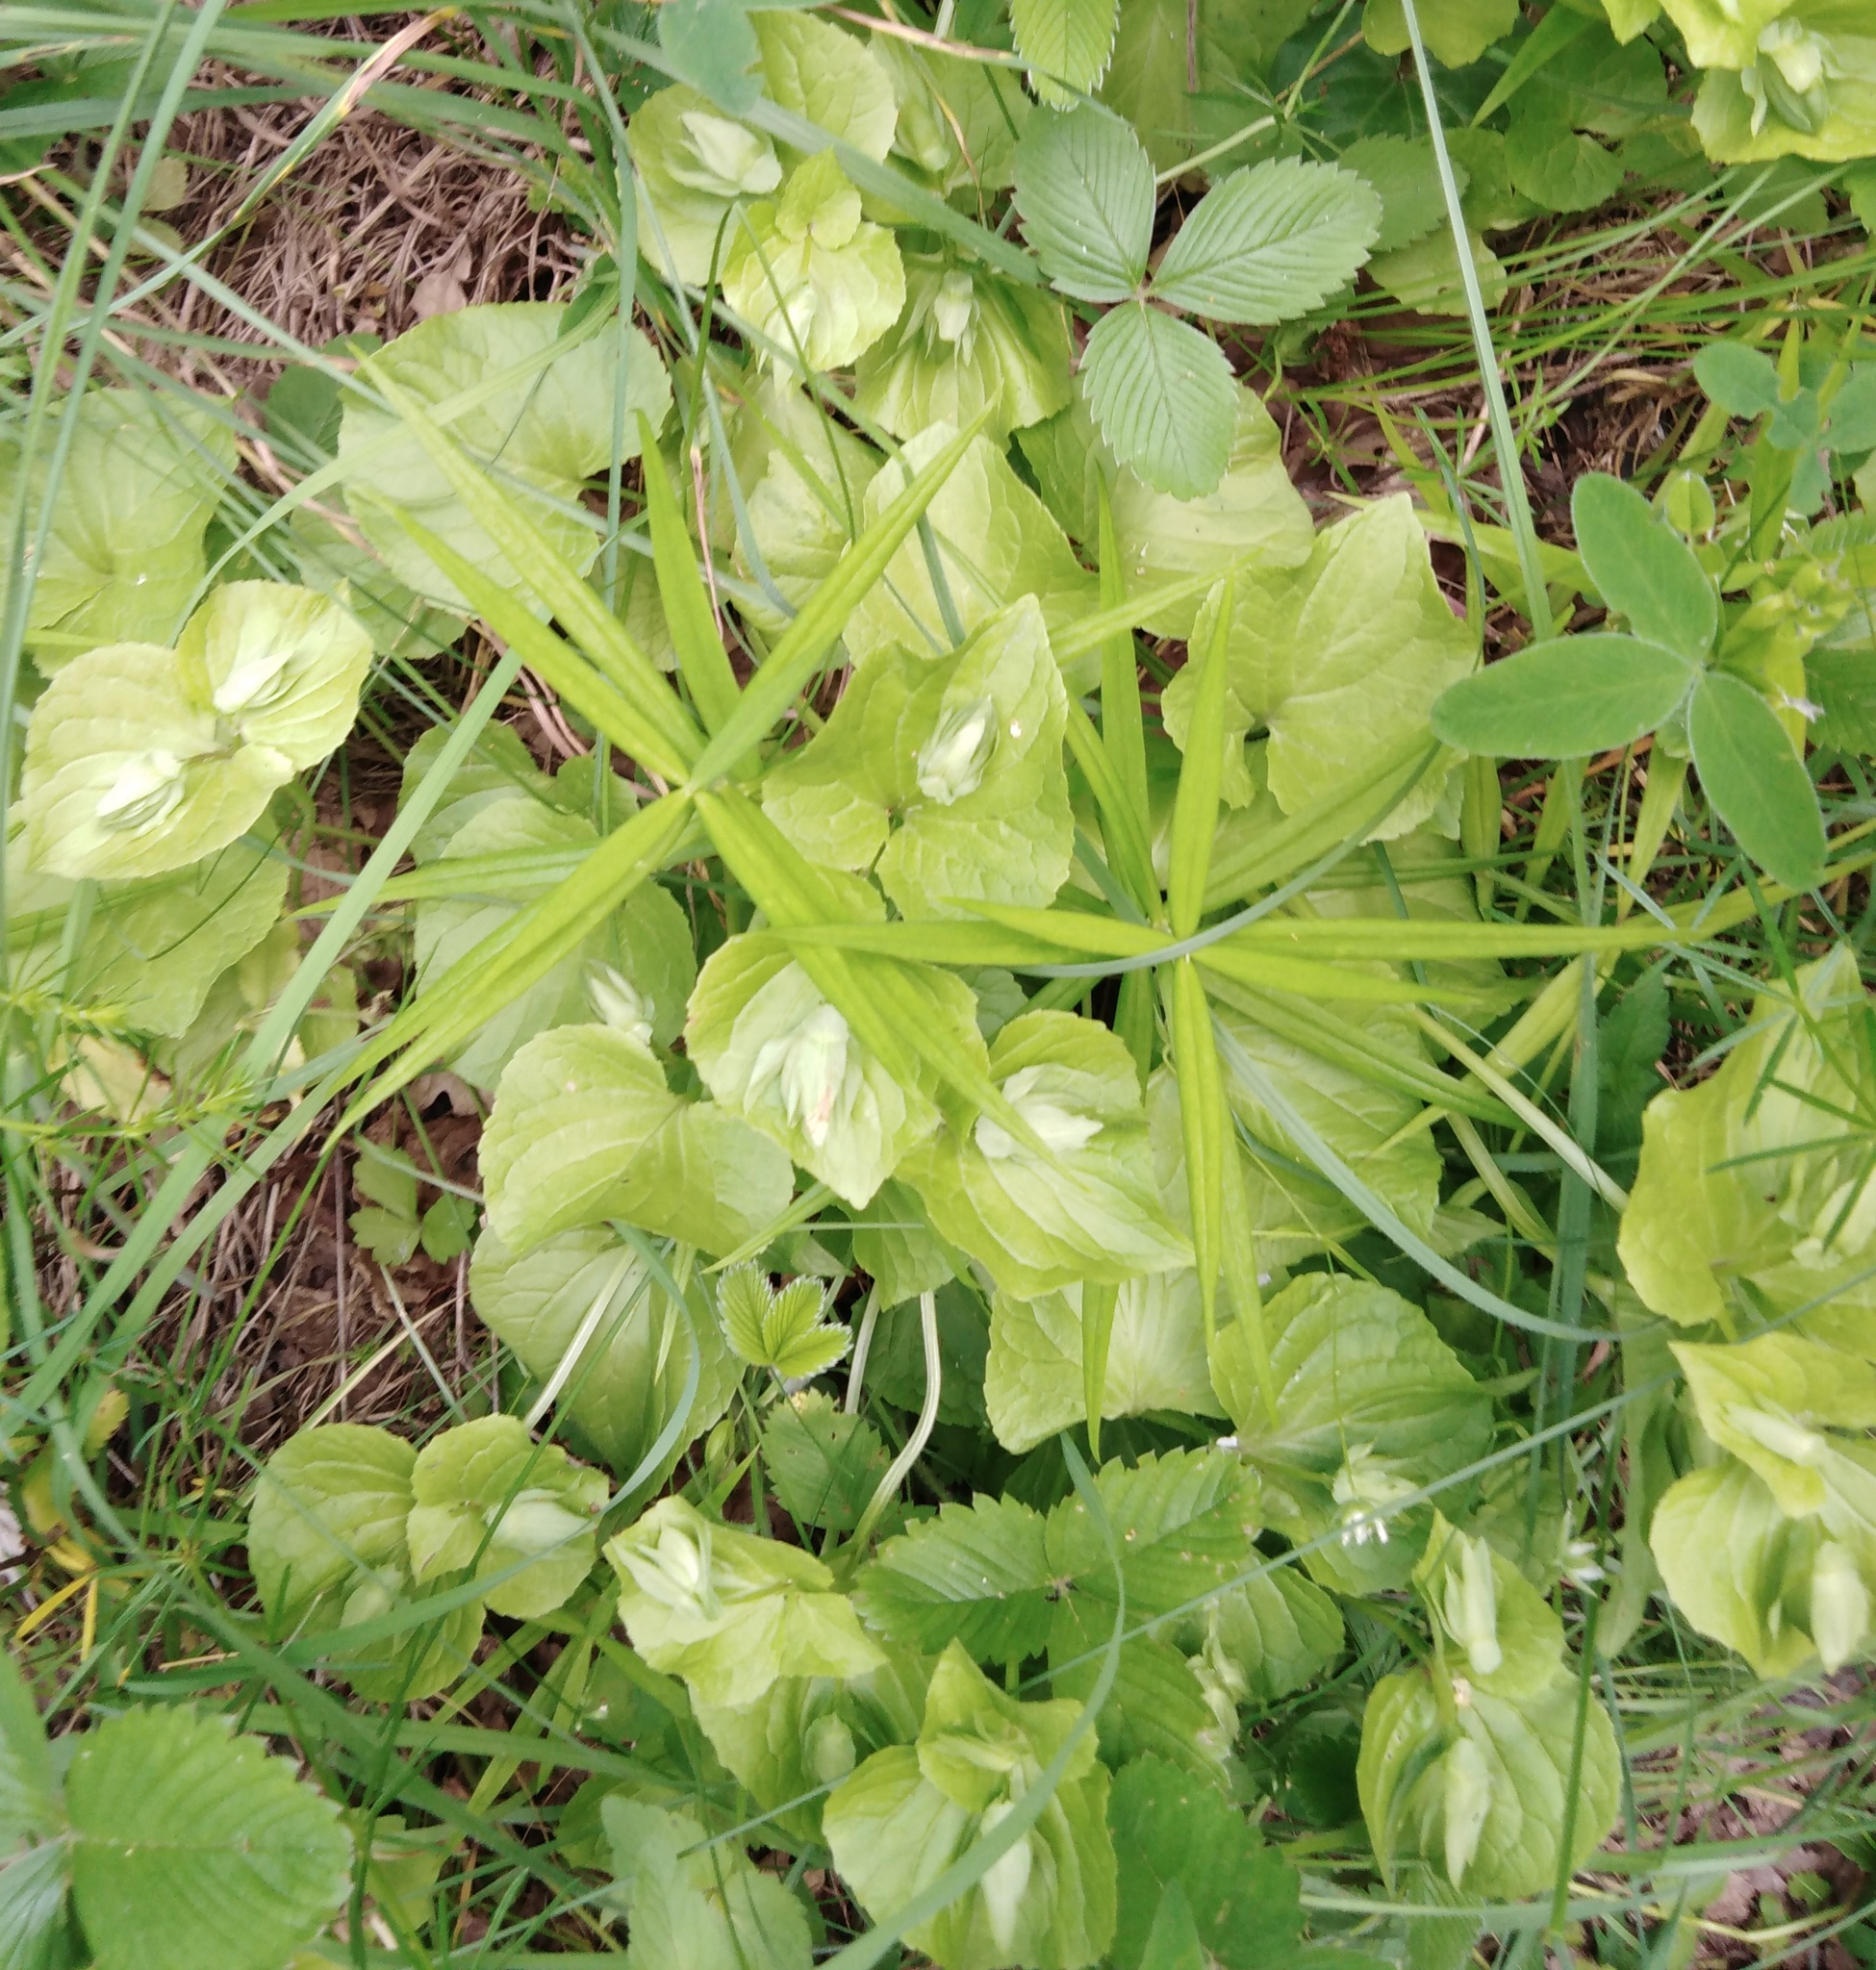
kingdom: Plantae
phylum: Tracheophyta
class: Magnoliopsida
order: Malpighiales
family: Violaceae
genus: Viola
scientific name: Viola mirabilis
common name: Wonder violet
